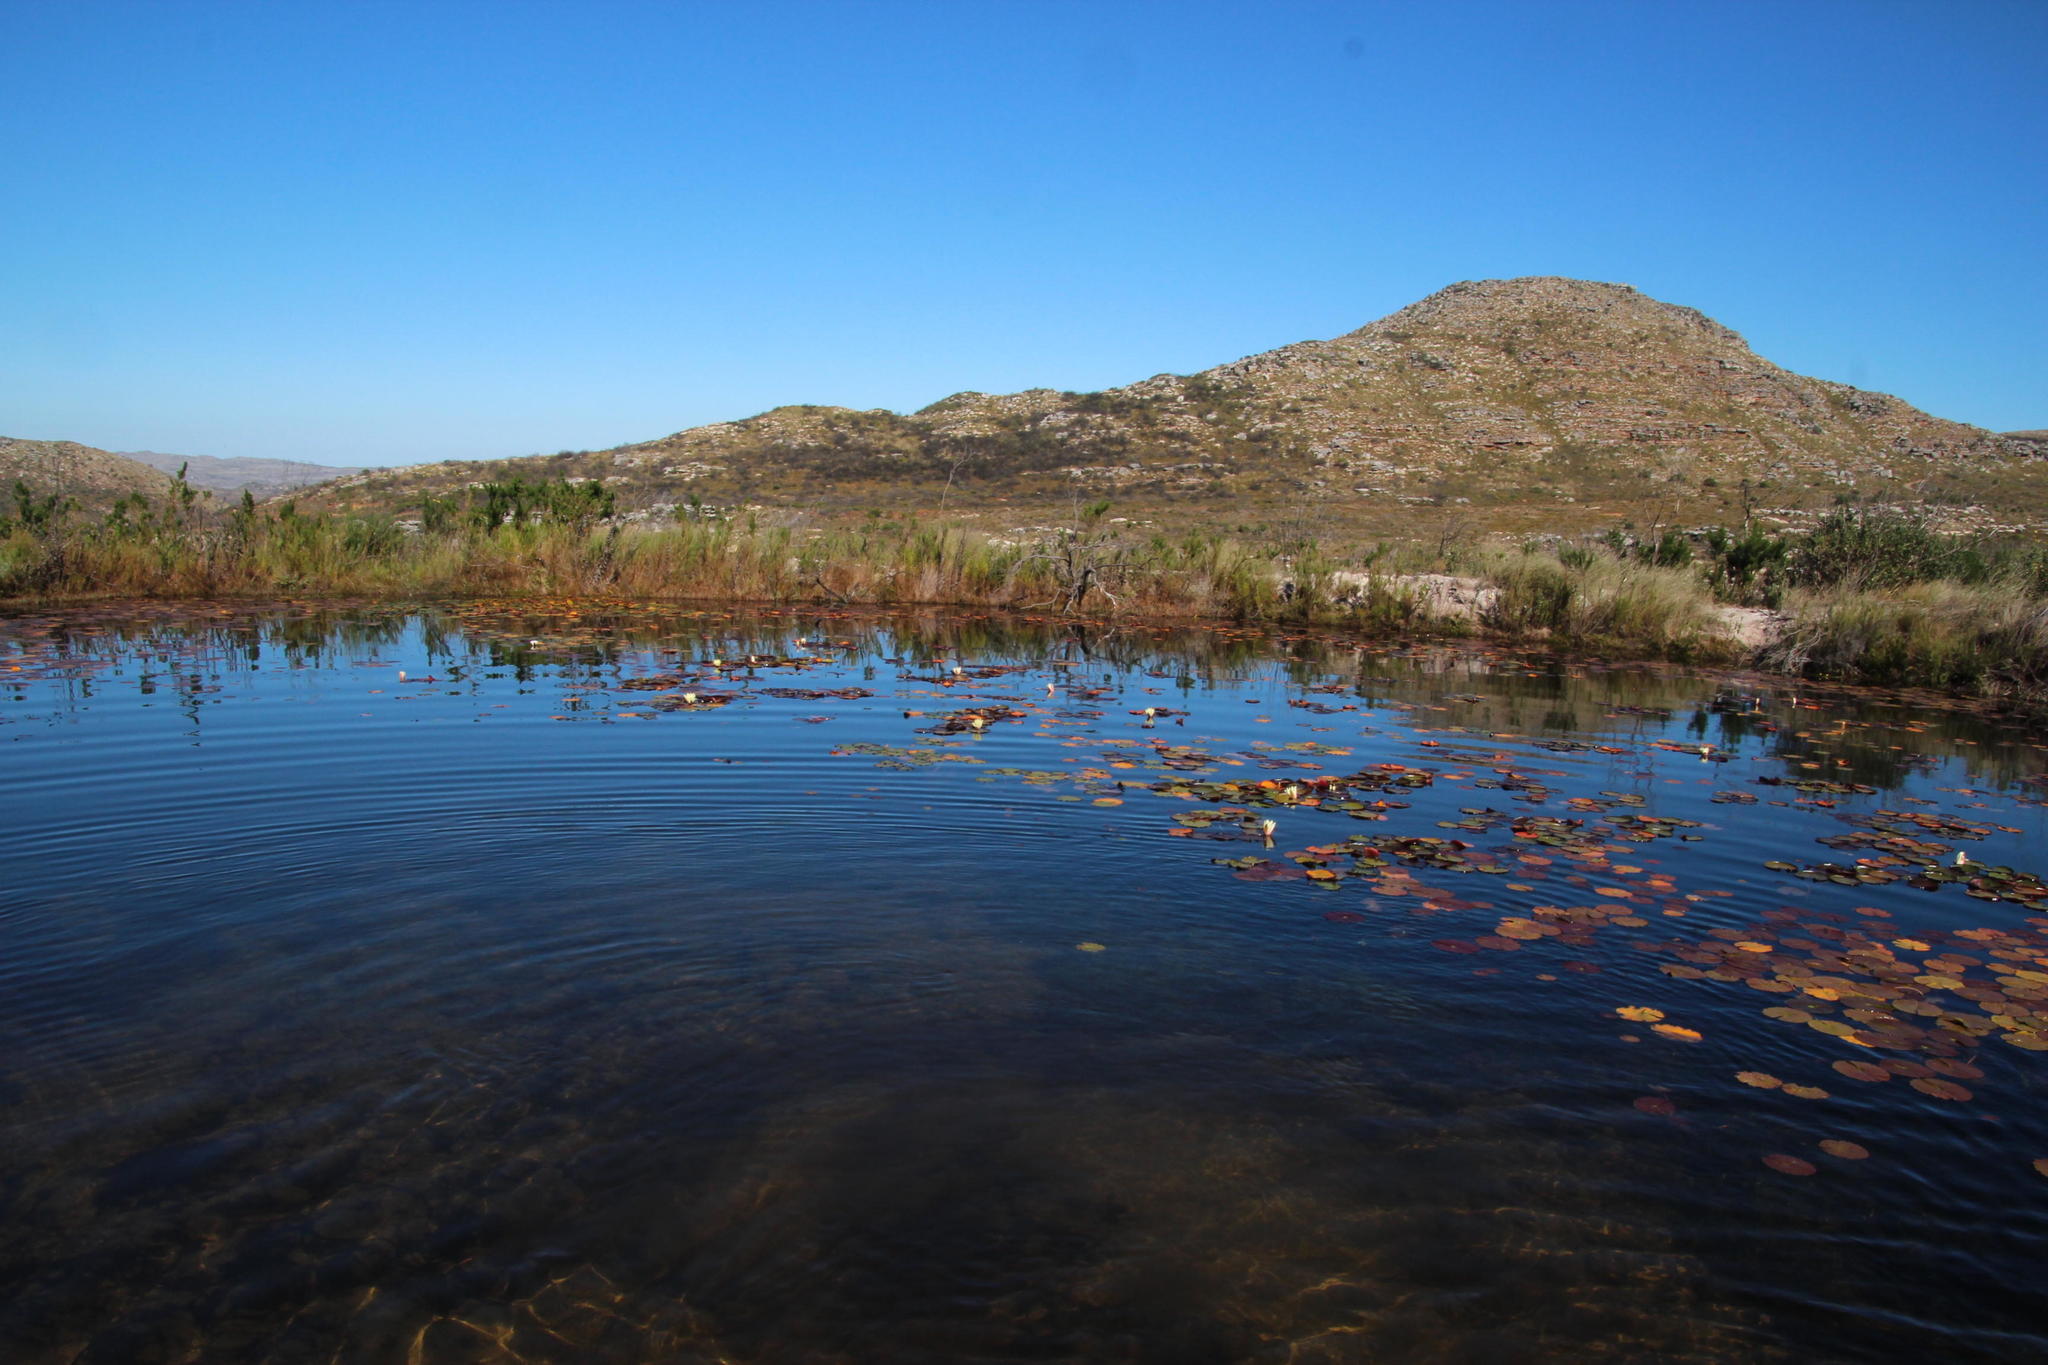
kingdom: Plantae
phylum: Tracheophyta
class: Magnoliopsida
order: Nymphaeales
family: Nymphaeaceae
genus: Nymphaea
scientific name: Nymphaea mexicana
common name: Banana water-lily
